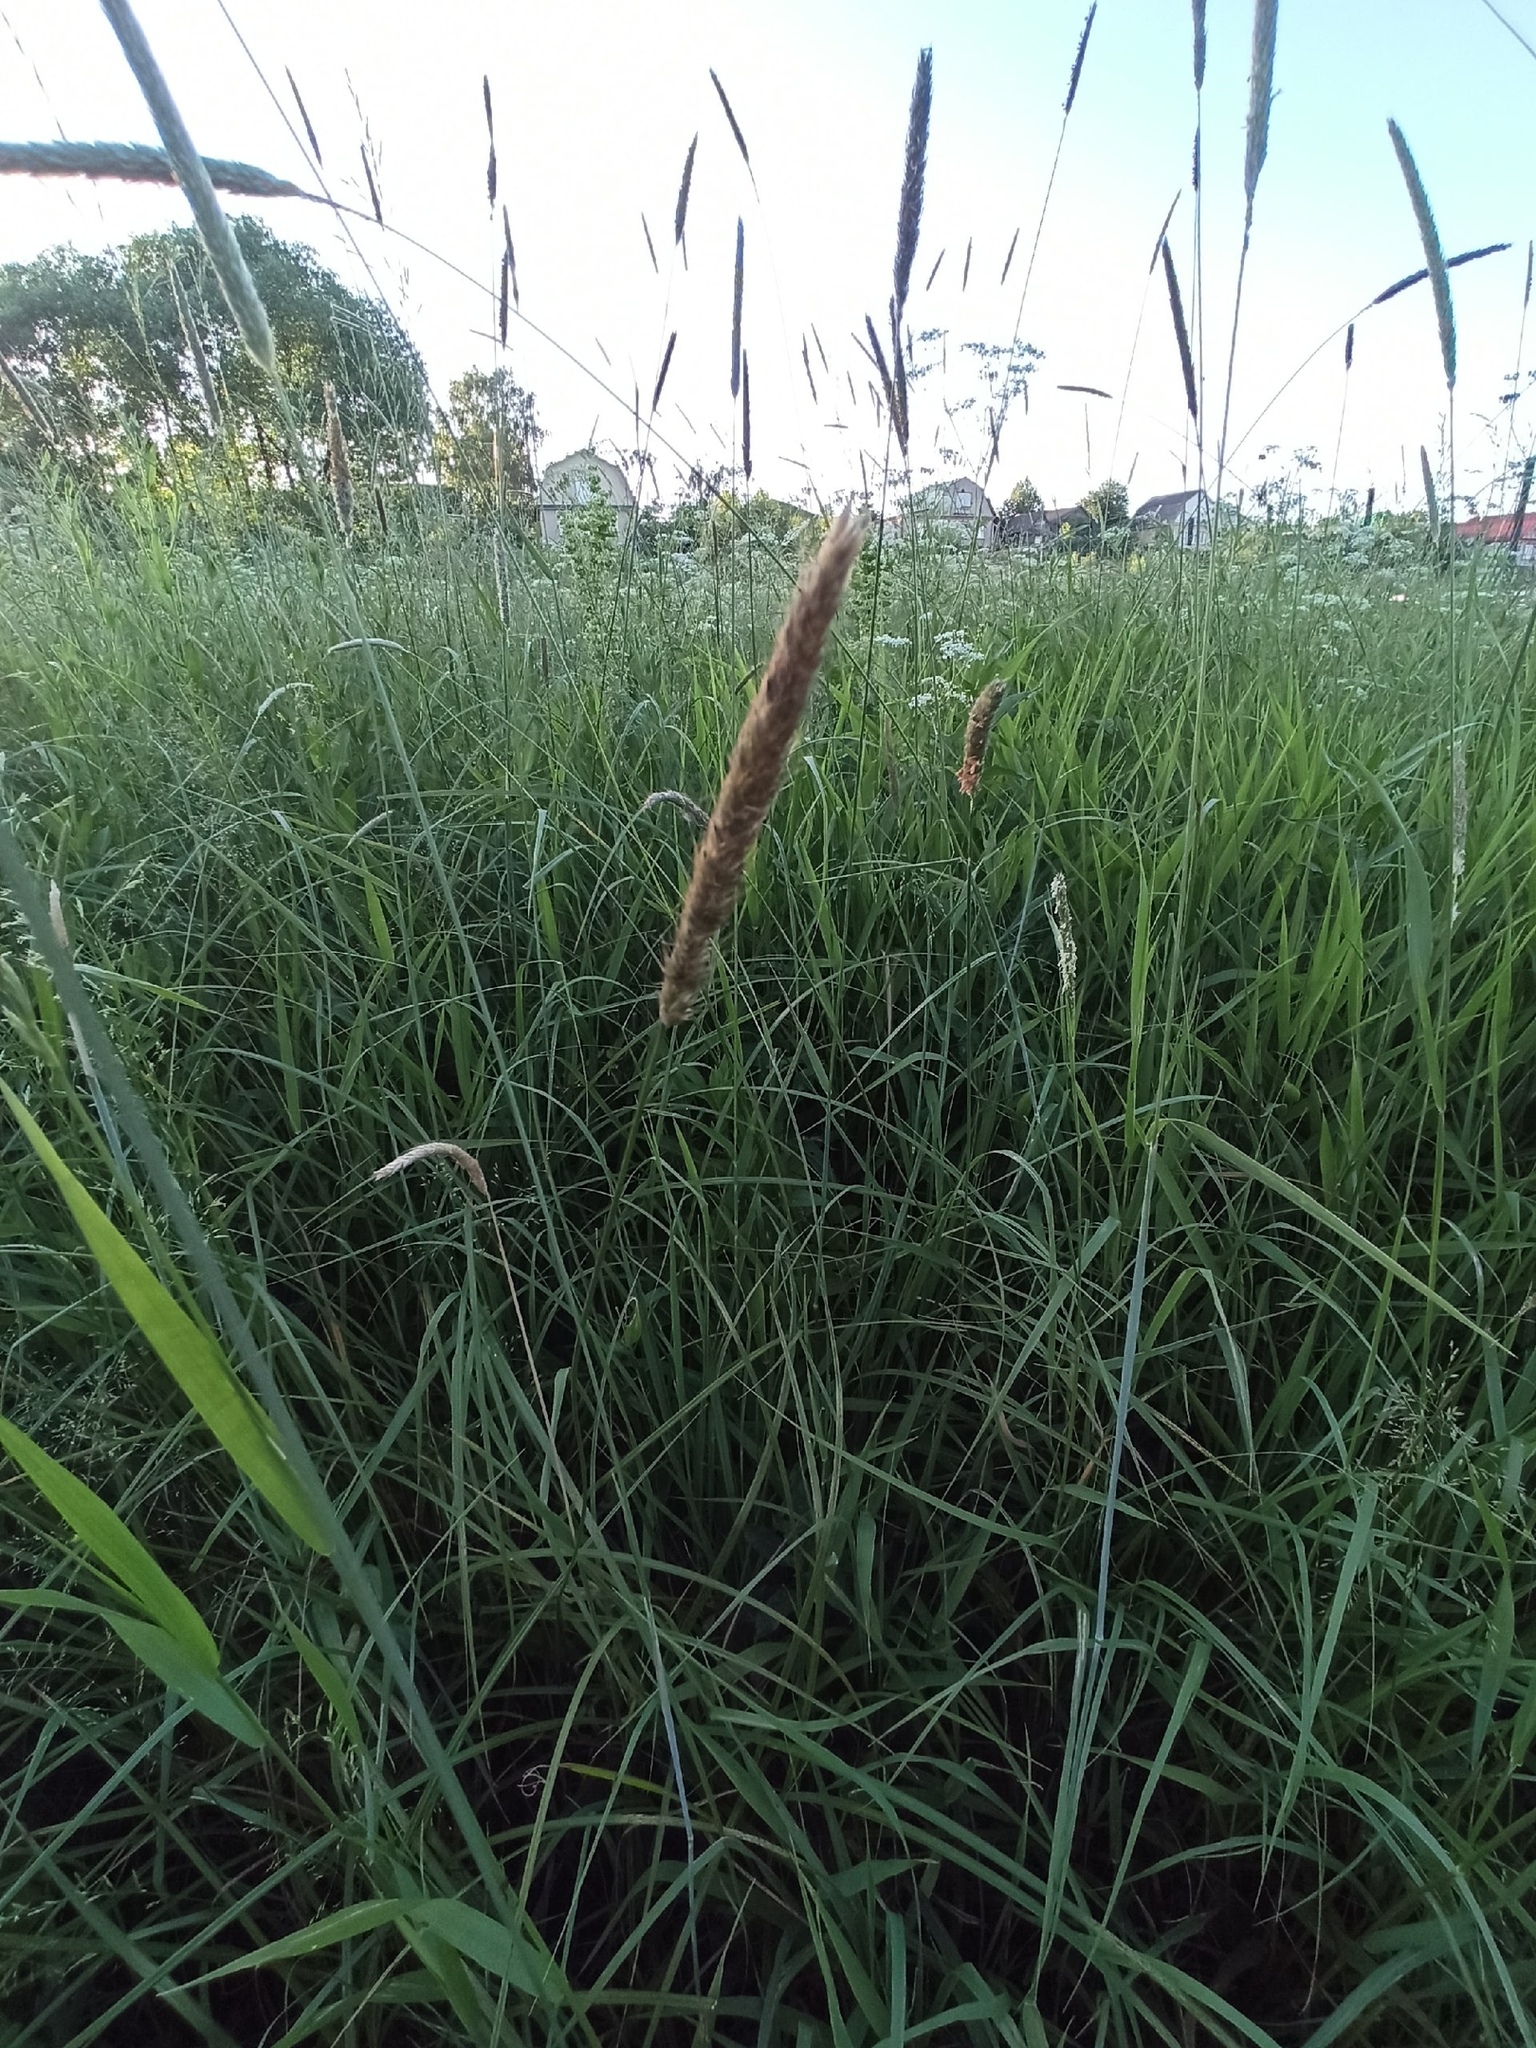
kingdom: Plantae
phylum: Tracheophyta
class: Liliopsida
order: Poales
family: Poaceae
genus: Alopecurus
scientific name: Alopecurus pratensis
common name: Meadow foxtail
